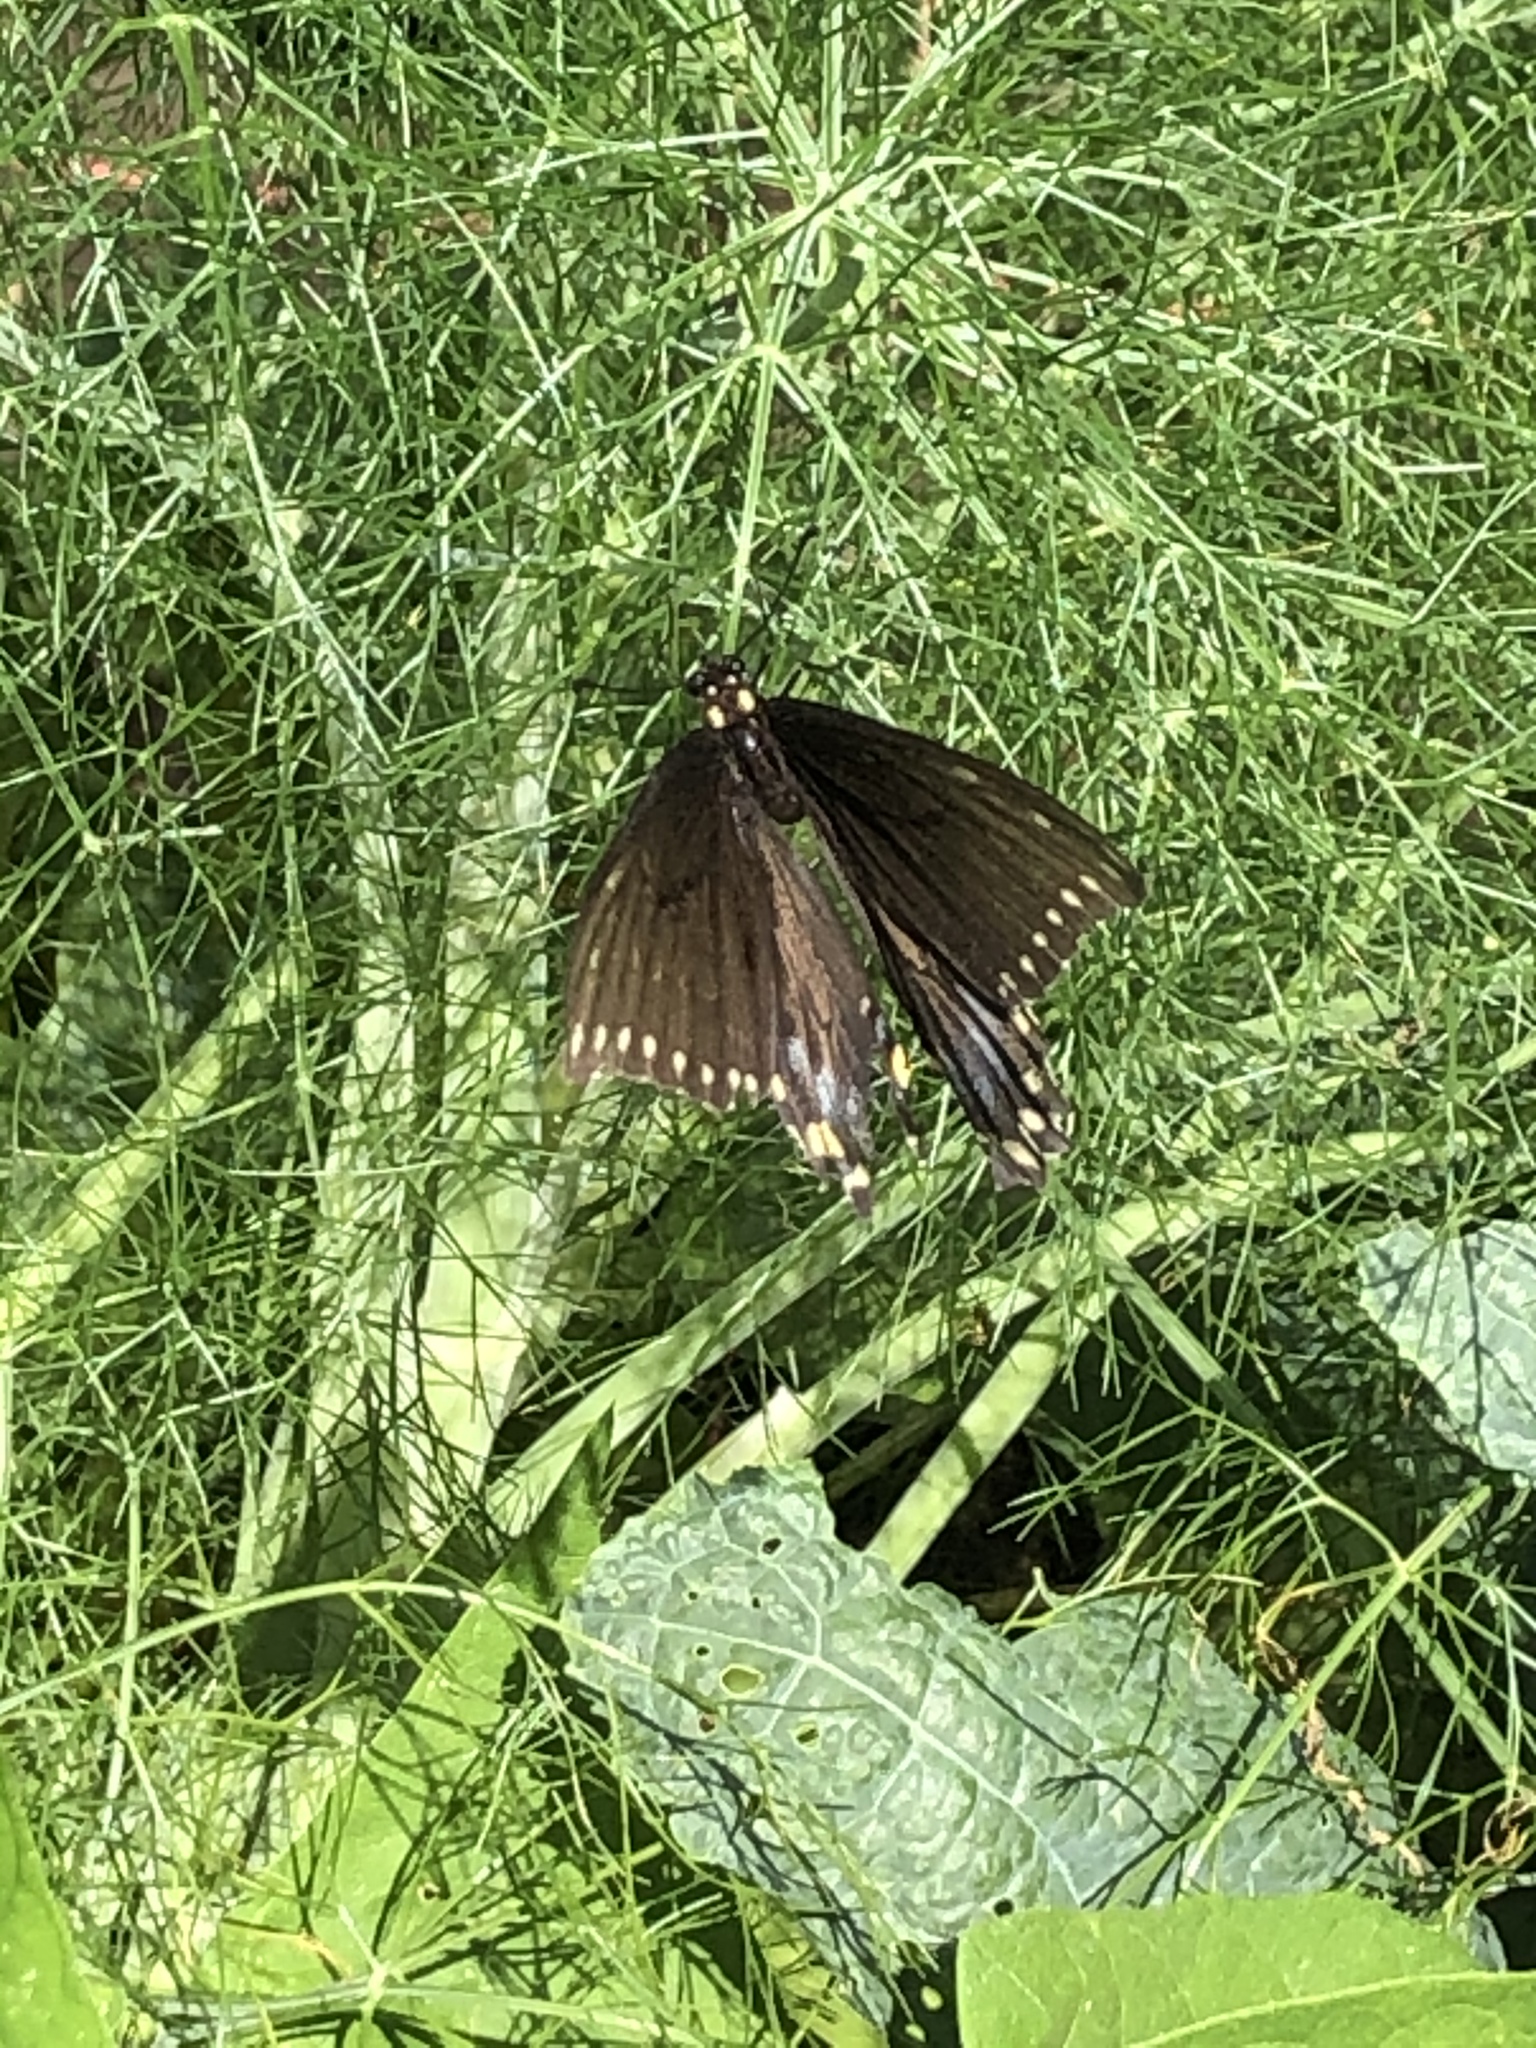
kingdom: Animalia
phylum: Arthropoda
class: Insecta
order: Lepidoptera
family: Papilionidae
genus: Papilio
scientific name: Papilio polyxenes
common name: Black swallowtail
